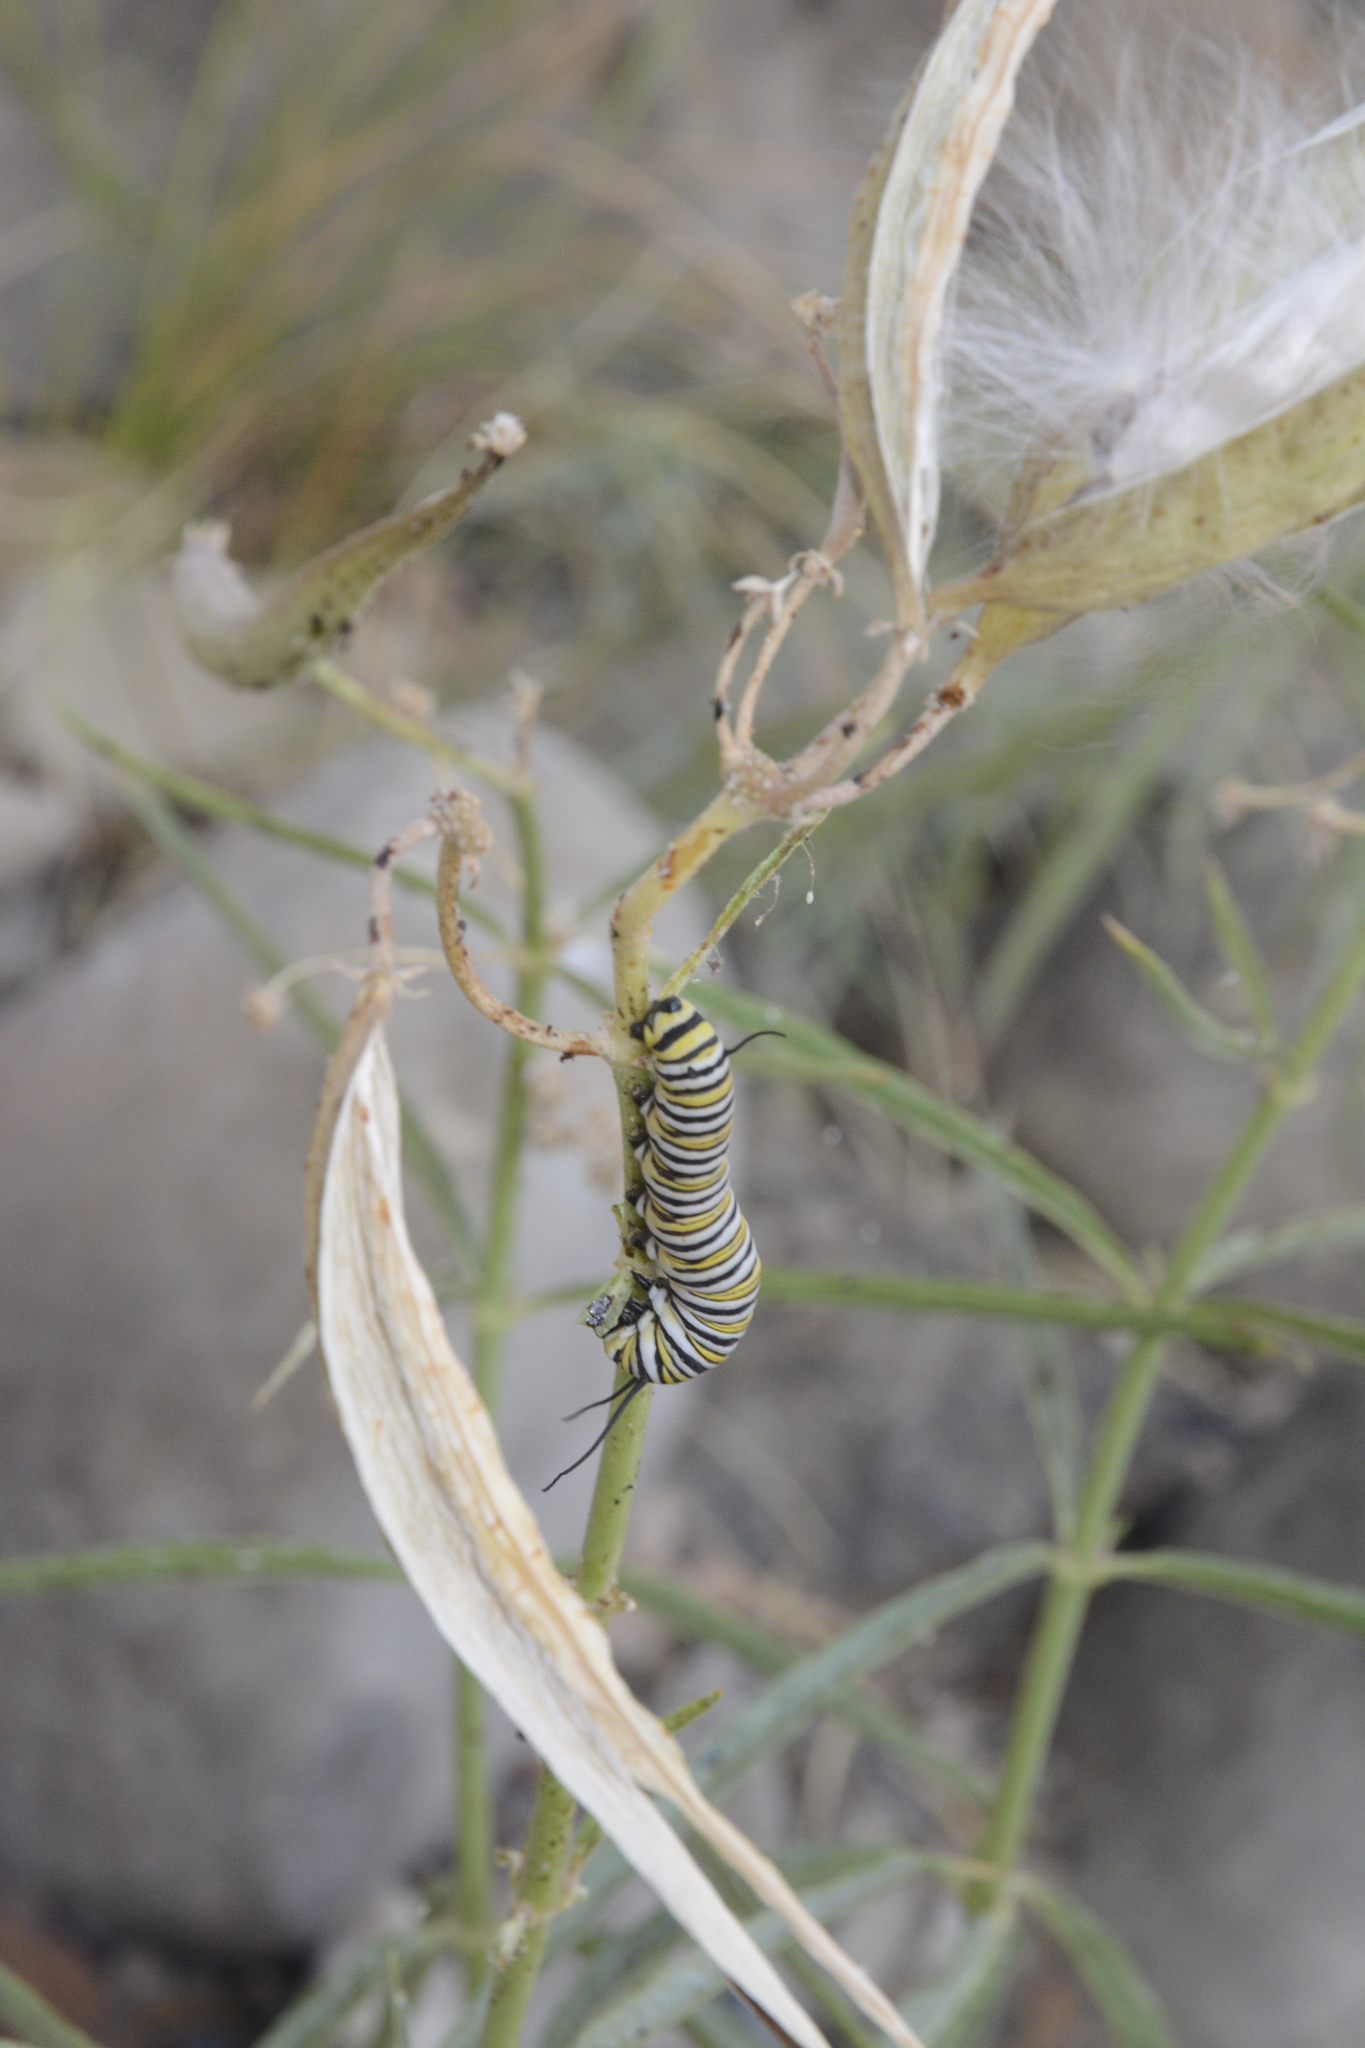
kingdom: Animalia
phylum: Arthropoda
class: Insecta
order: Lepidoptera
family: Nymphalidae
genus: Danaus
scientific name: Danaus plexippus
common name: Monarch
